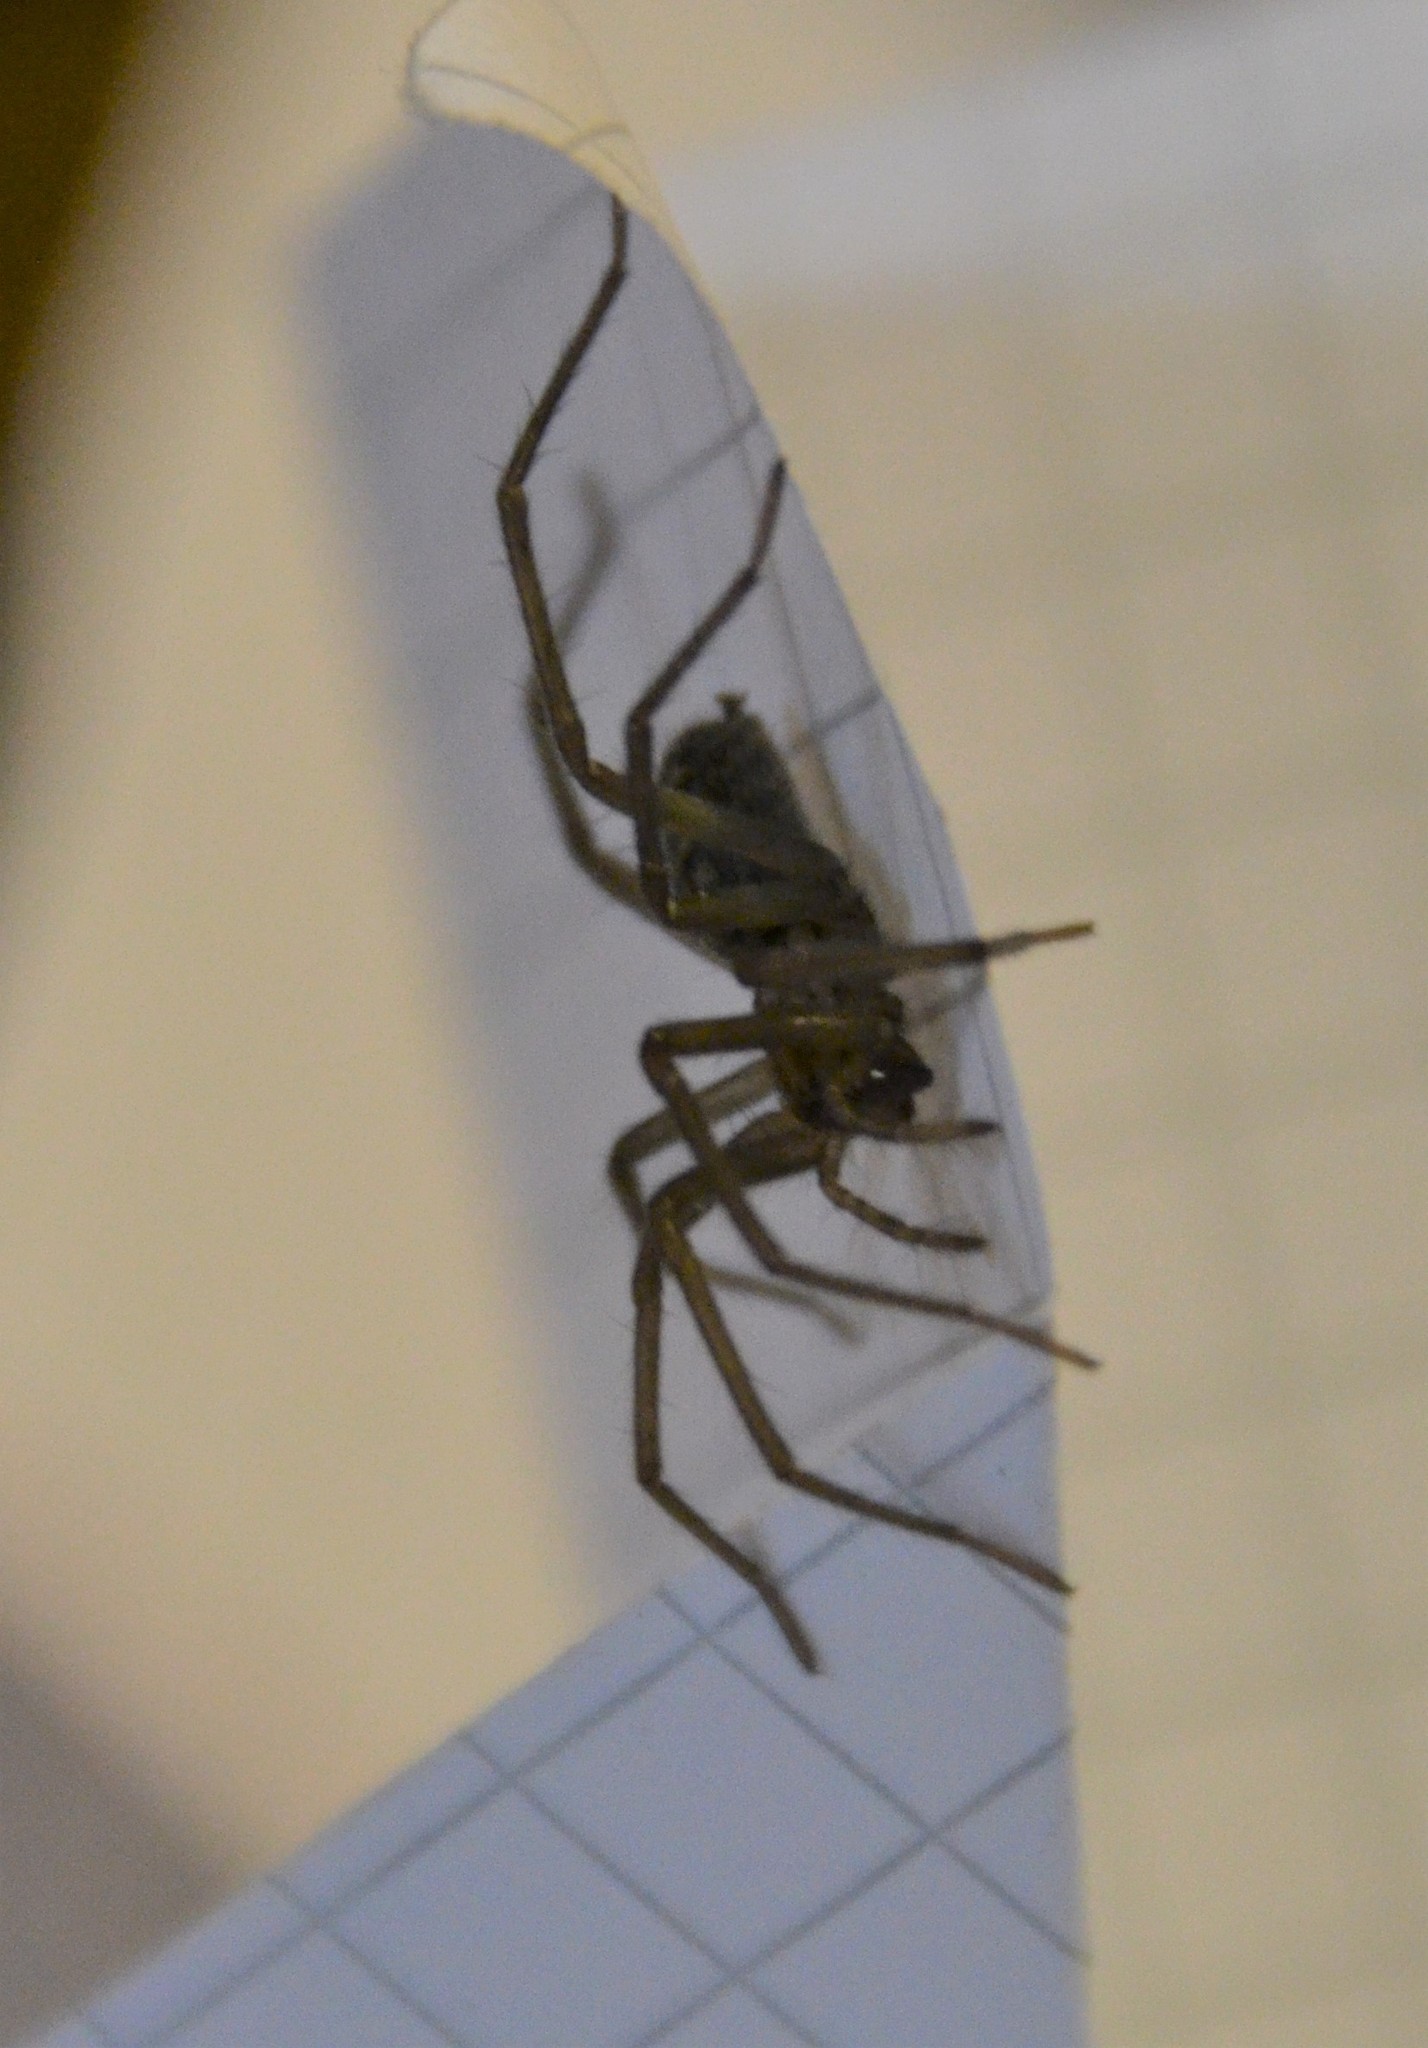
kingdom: Animalia
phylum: Arthropoda
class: Arachnida
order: Araneae
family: Agelenidae
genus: Eratigena
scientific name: Eratigena atrica
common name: Giant house spider
